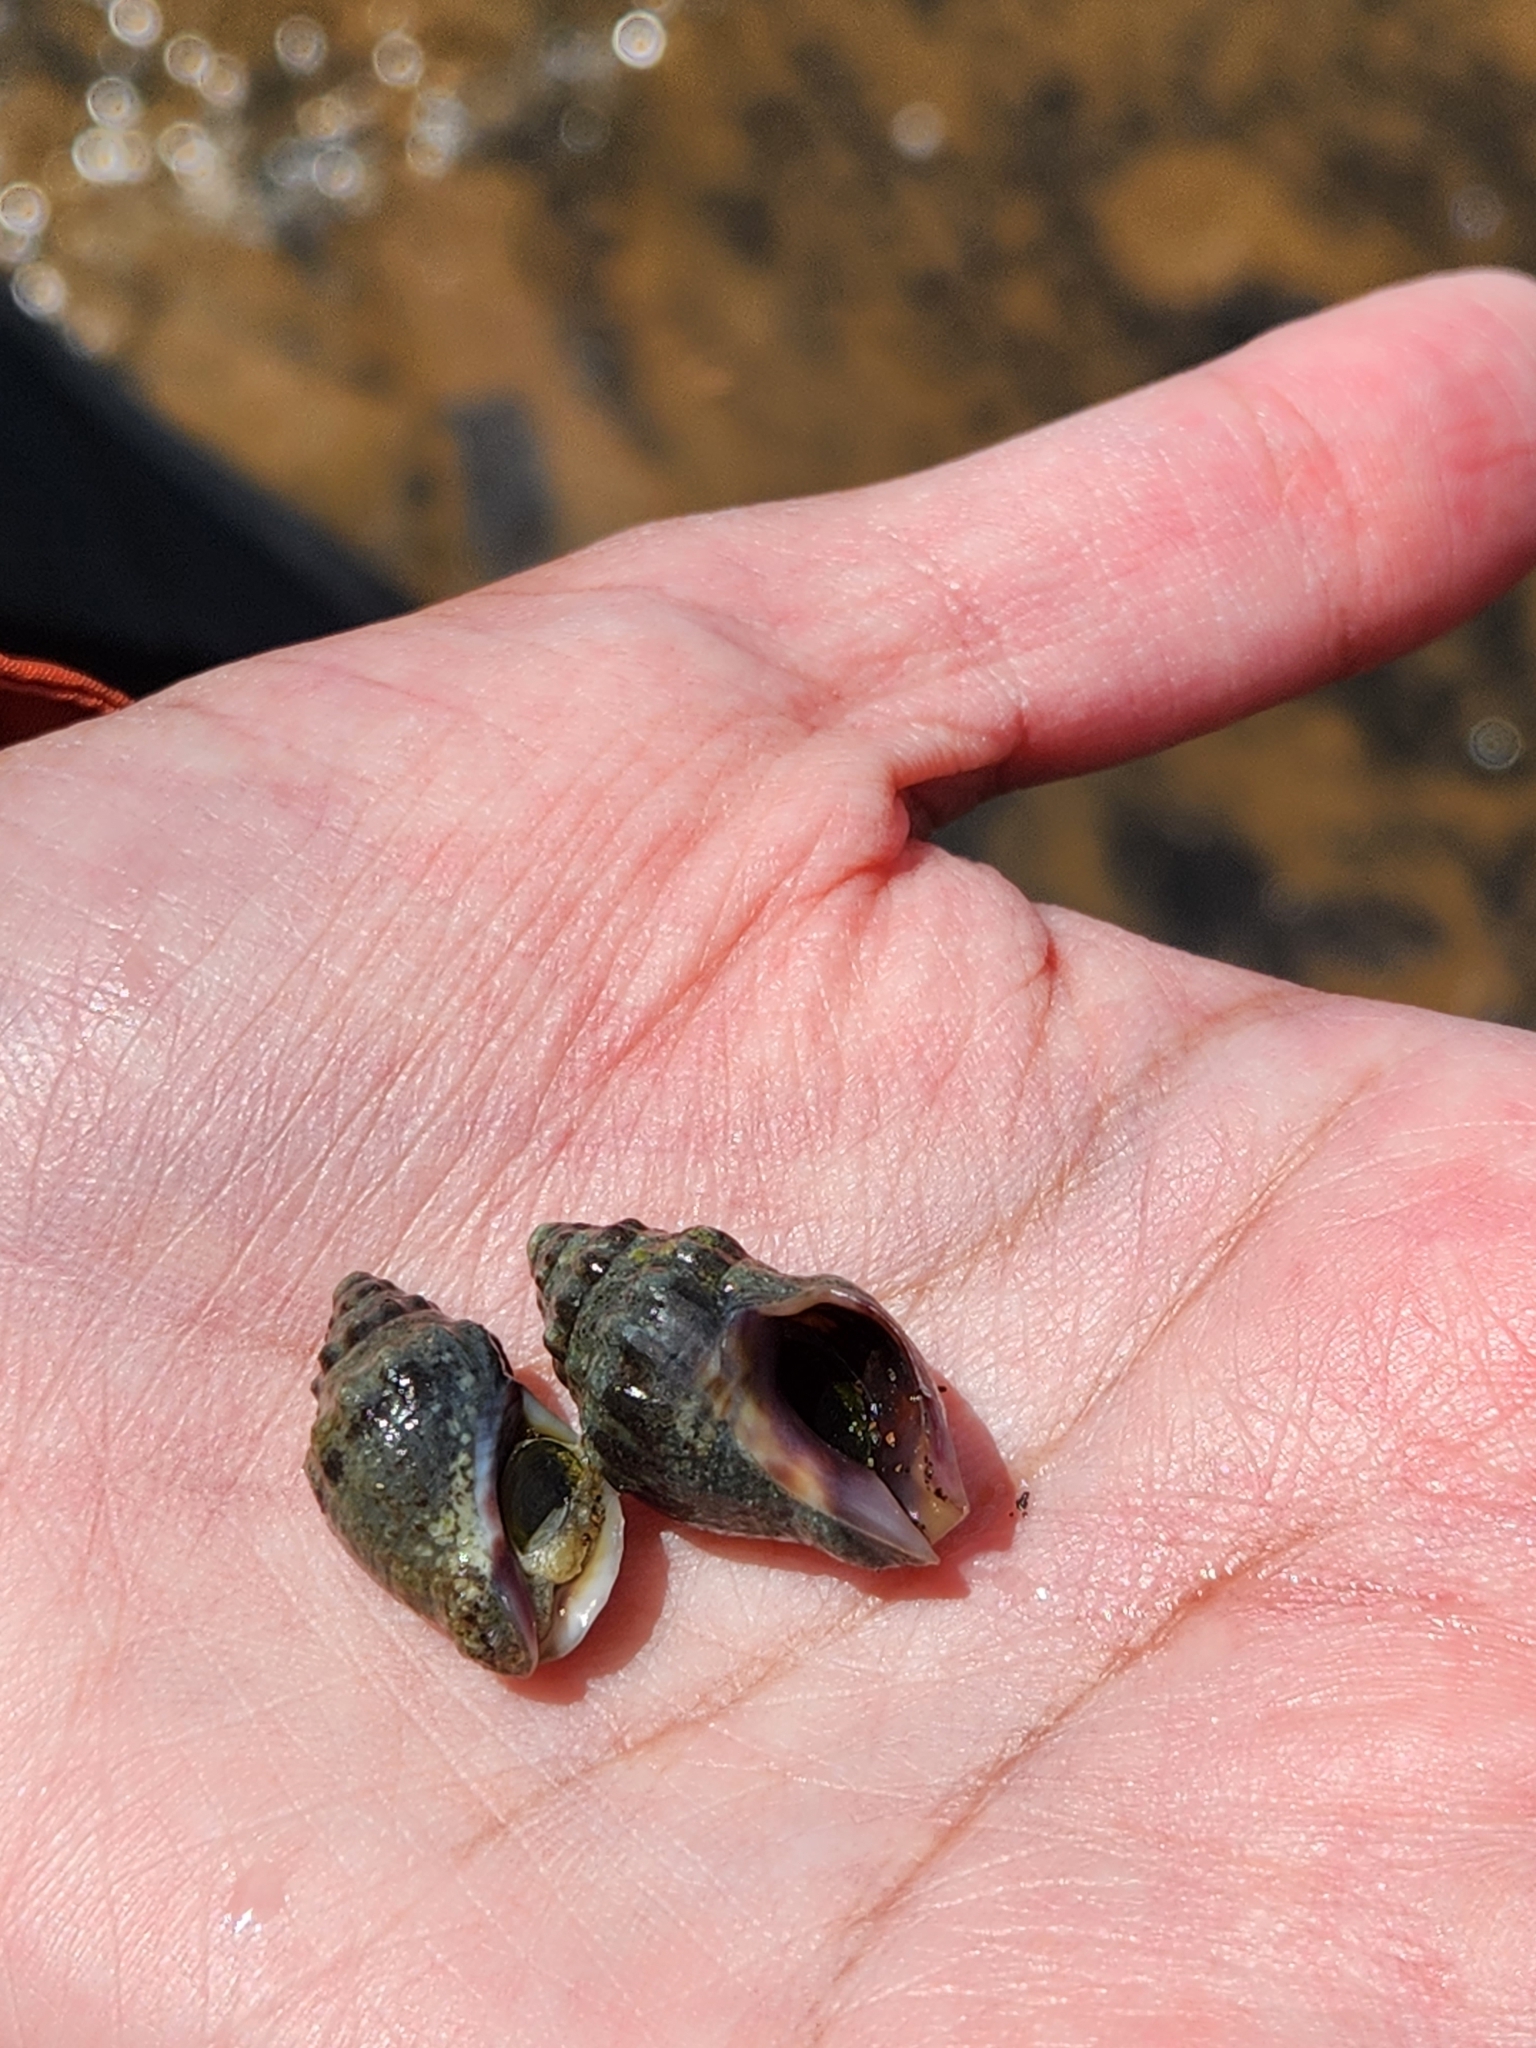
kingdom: Animalia
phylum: Mollusca
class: Gastropoda
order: Neogastropoda
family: Cominellidae
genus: Cominella
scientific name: Cominella glandiformis
